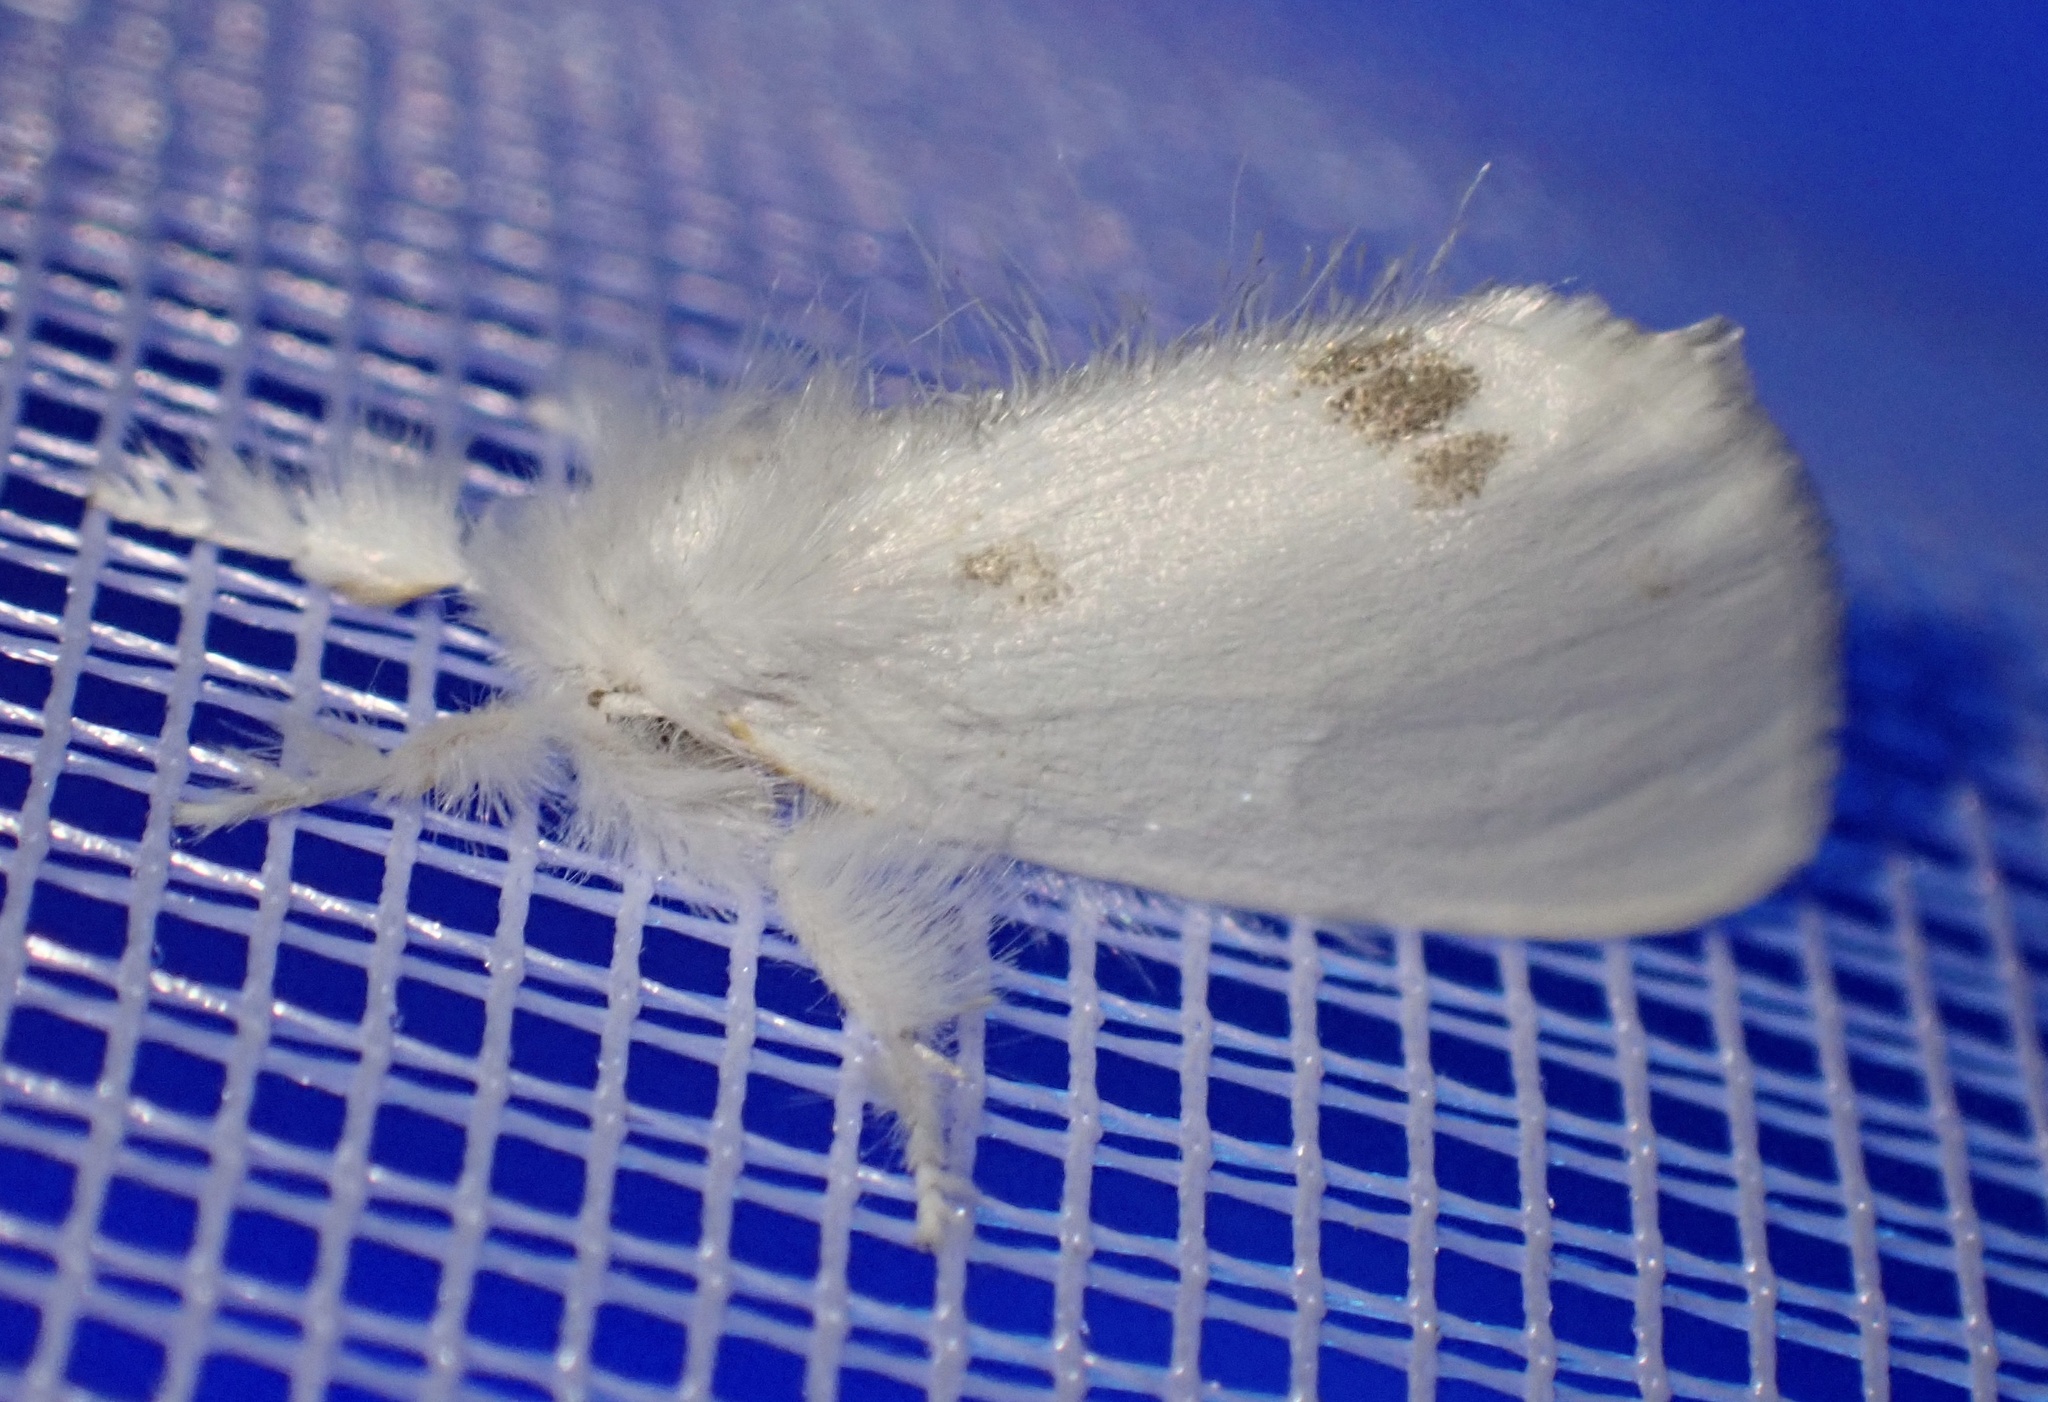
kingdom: Animalia
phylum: Arthropoda
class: Insecta
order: Lepidoptera
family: Erebidae
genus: Sphrageidus
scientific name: Sphrageidus similis
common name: Yellow-tail
